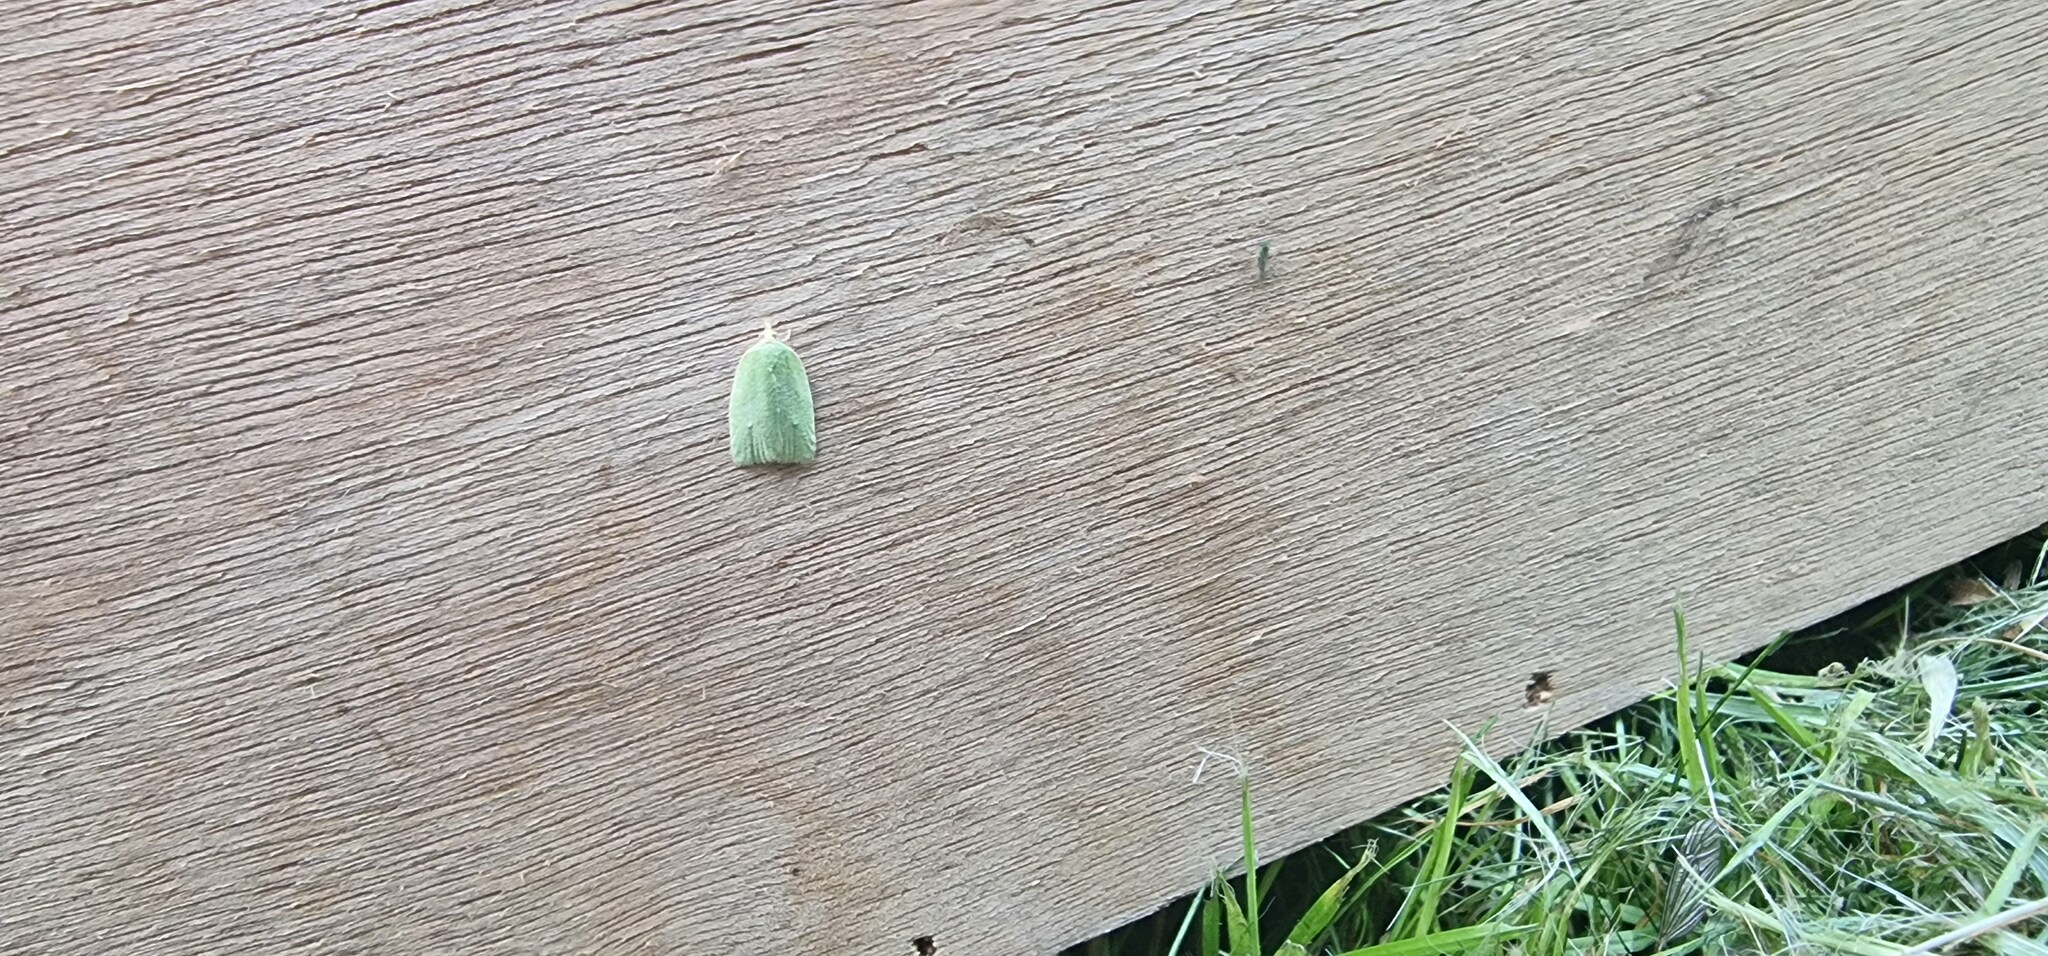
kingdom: Animalia
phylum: Arthropoda
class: Insecta
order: Lepidoptera
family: Tortricidae
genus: Tortrix
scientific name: Tortrix viridana
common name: Green oak tortrix
